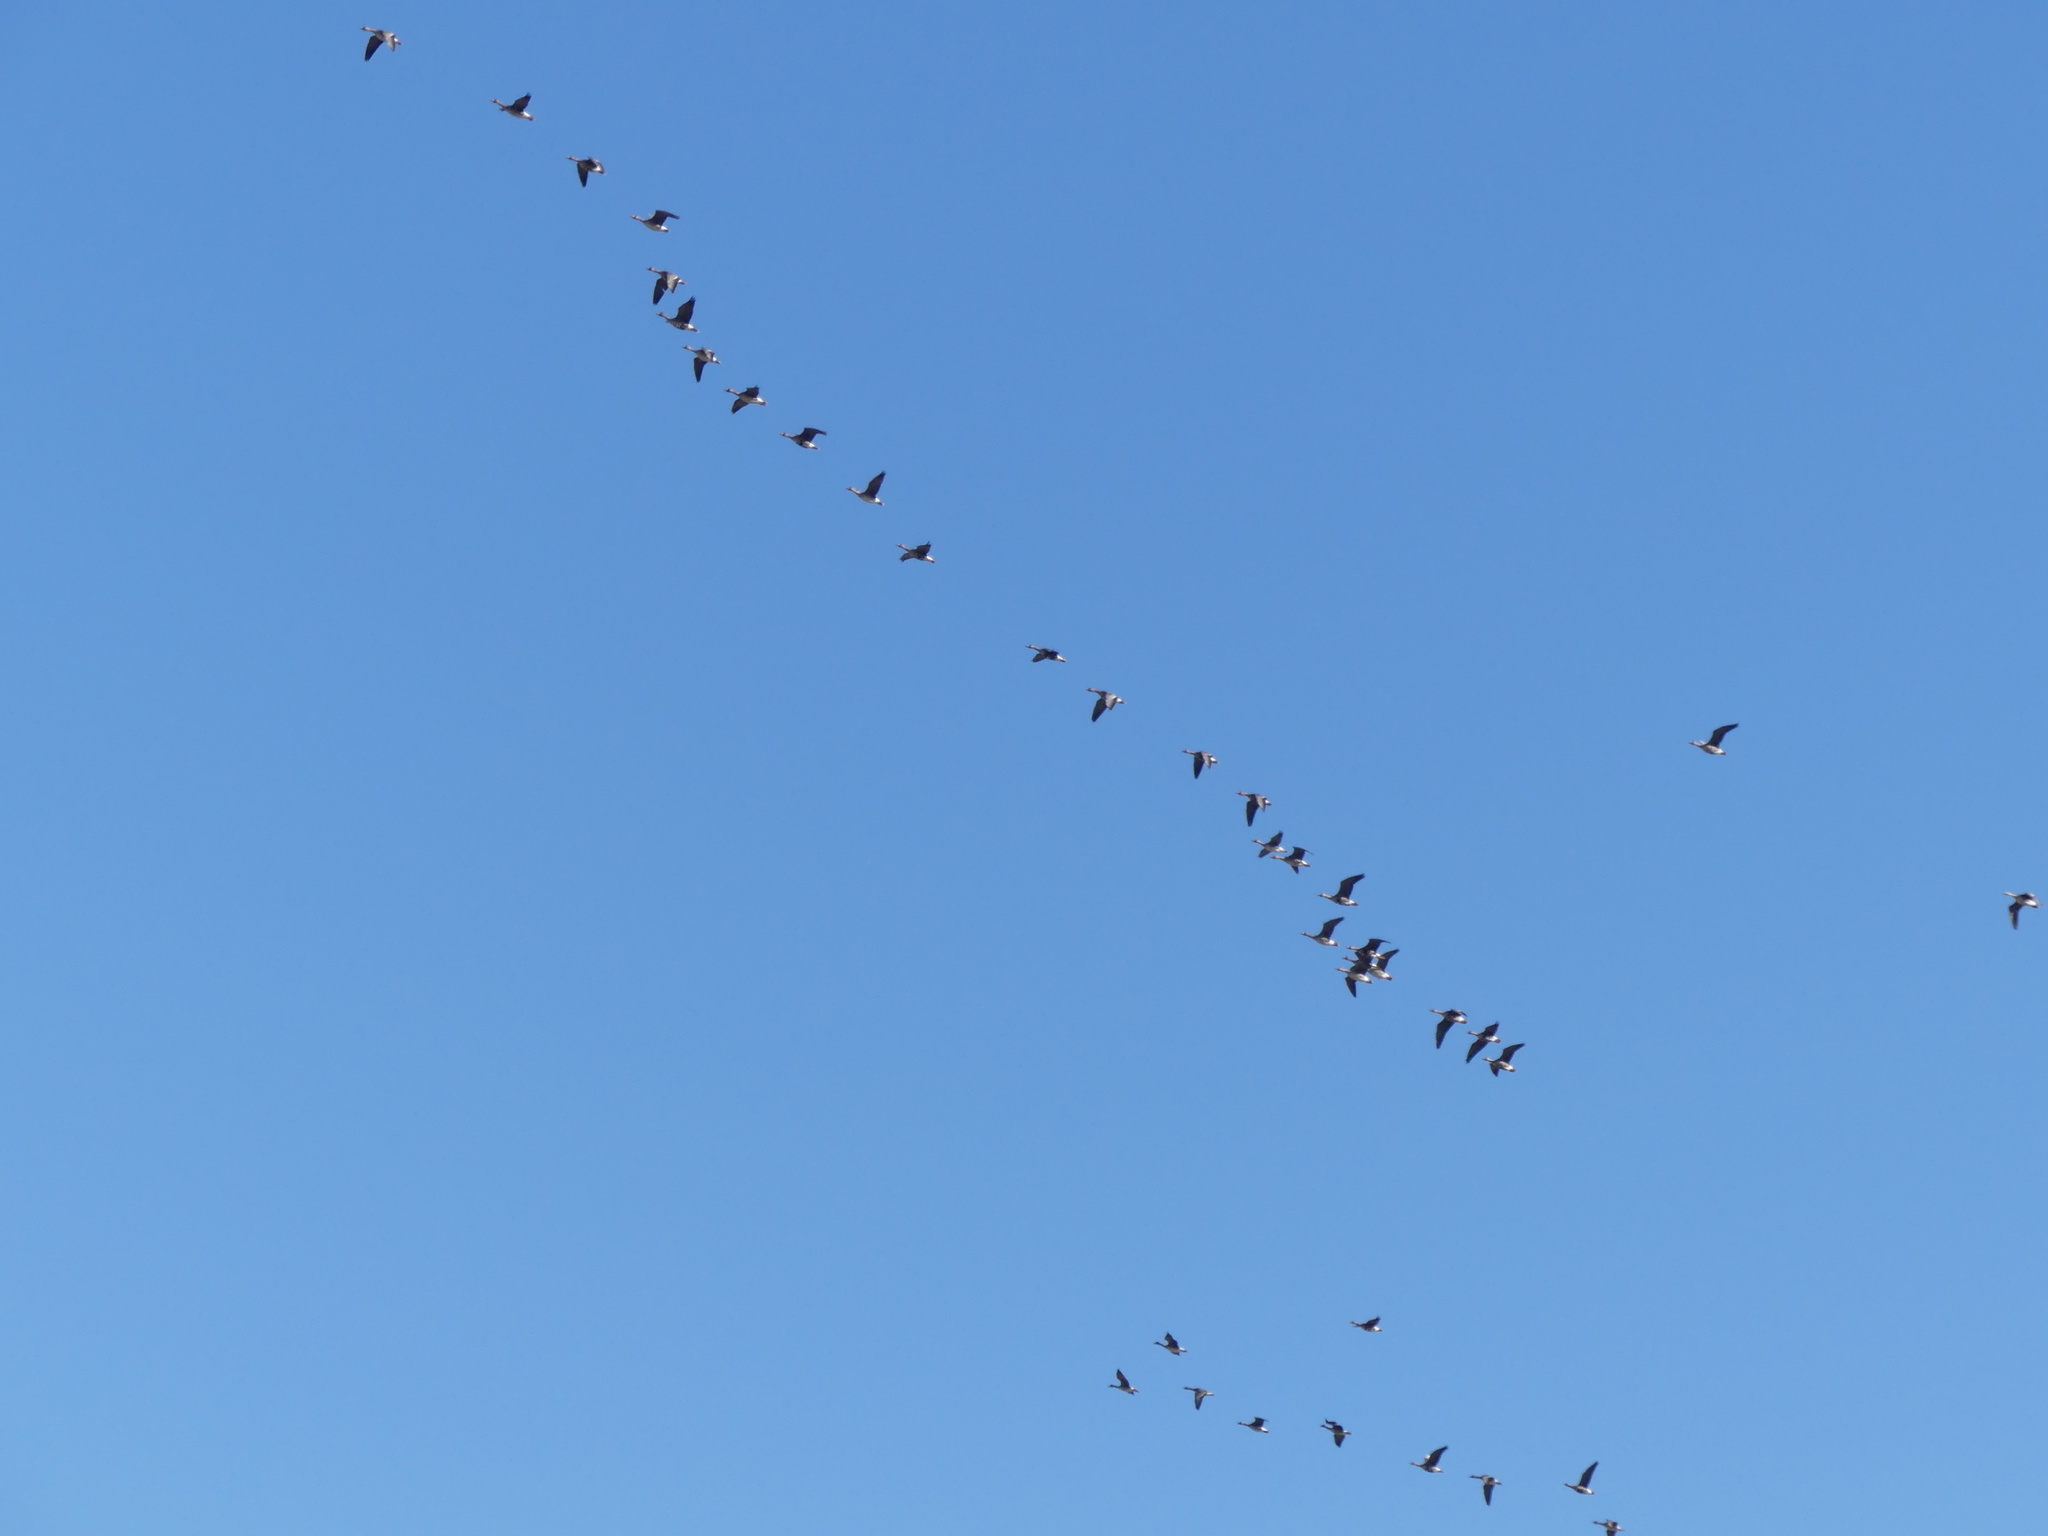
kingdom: Animalia
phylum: Chordata
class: Aves
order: Anseriformes
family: Anatidae
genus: Anser
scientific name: Anser albifrons
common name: Greater white-fronted goose
